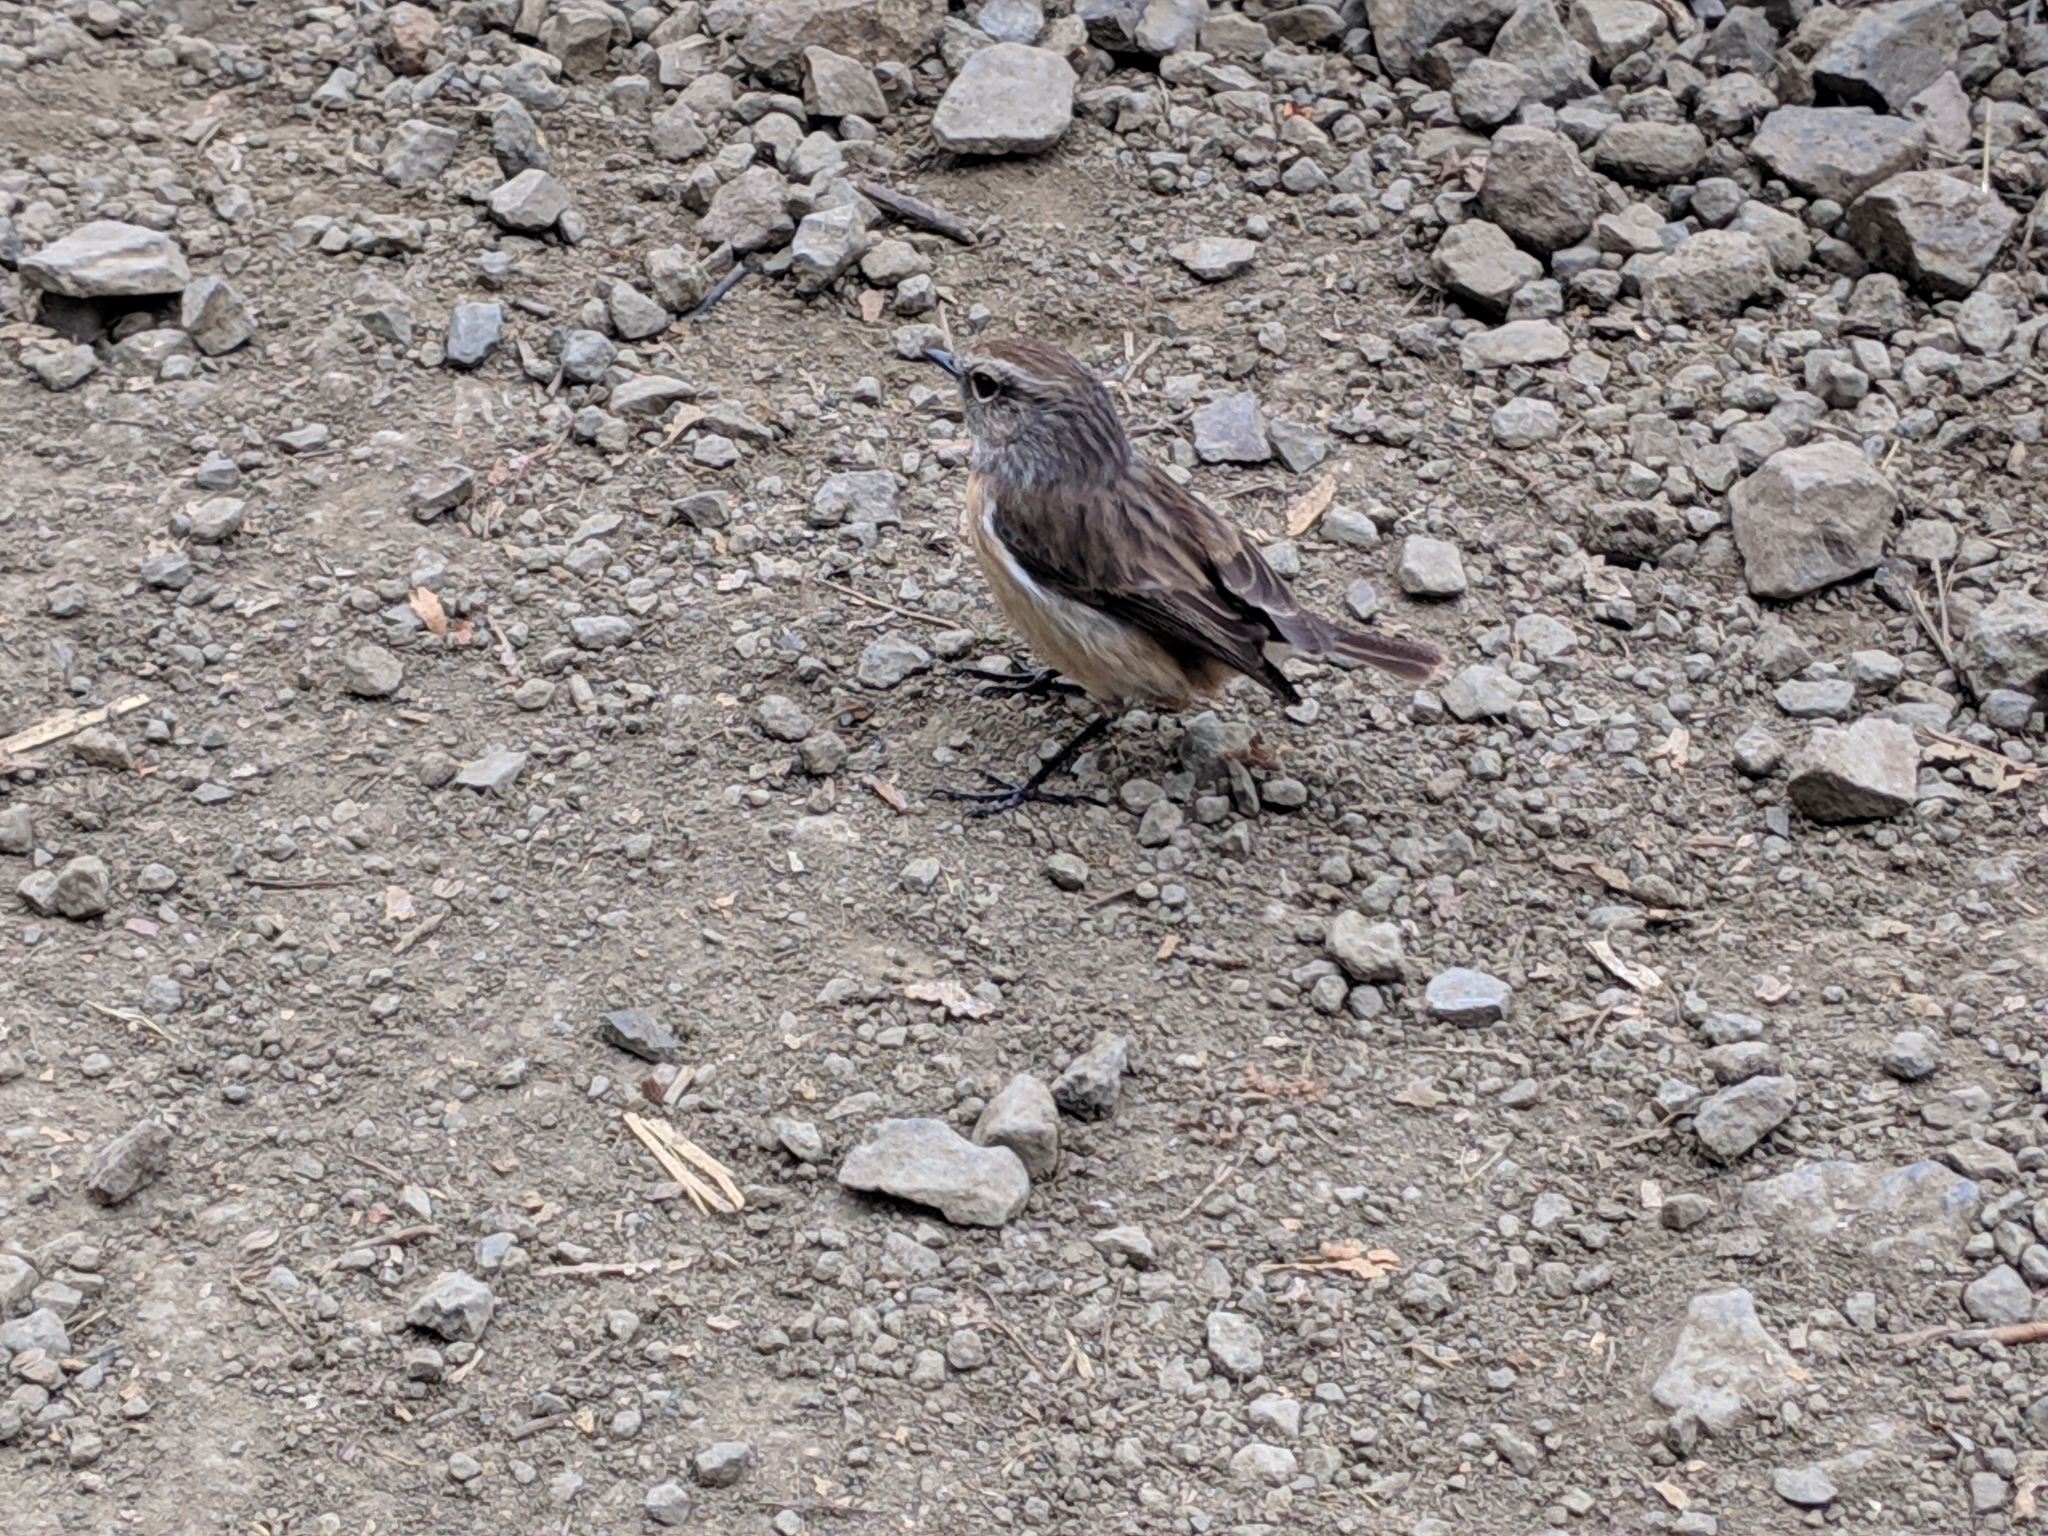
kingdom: Animalia
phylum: Chordata
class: Aves
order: Passeriformes
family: Muscicapidae
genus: Saxicola
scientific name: Saxicola tectes
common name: Reunion stonechat
